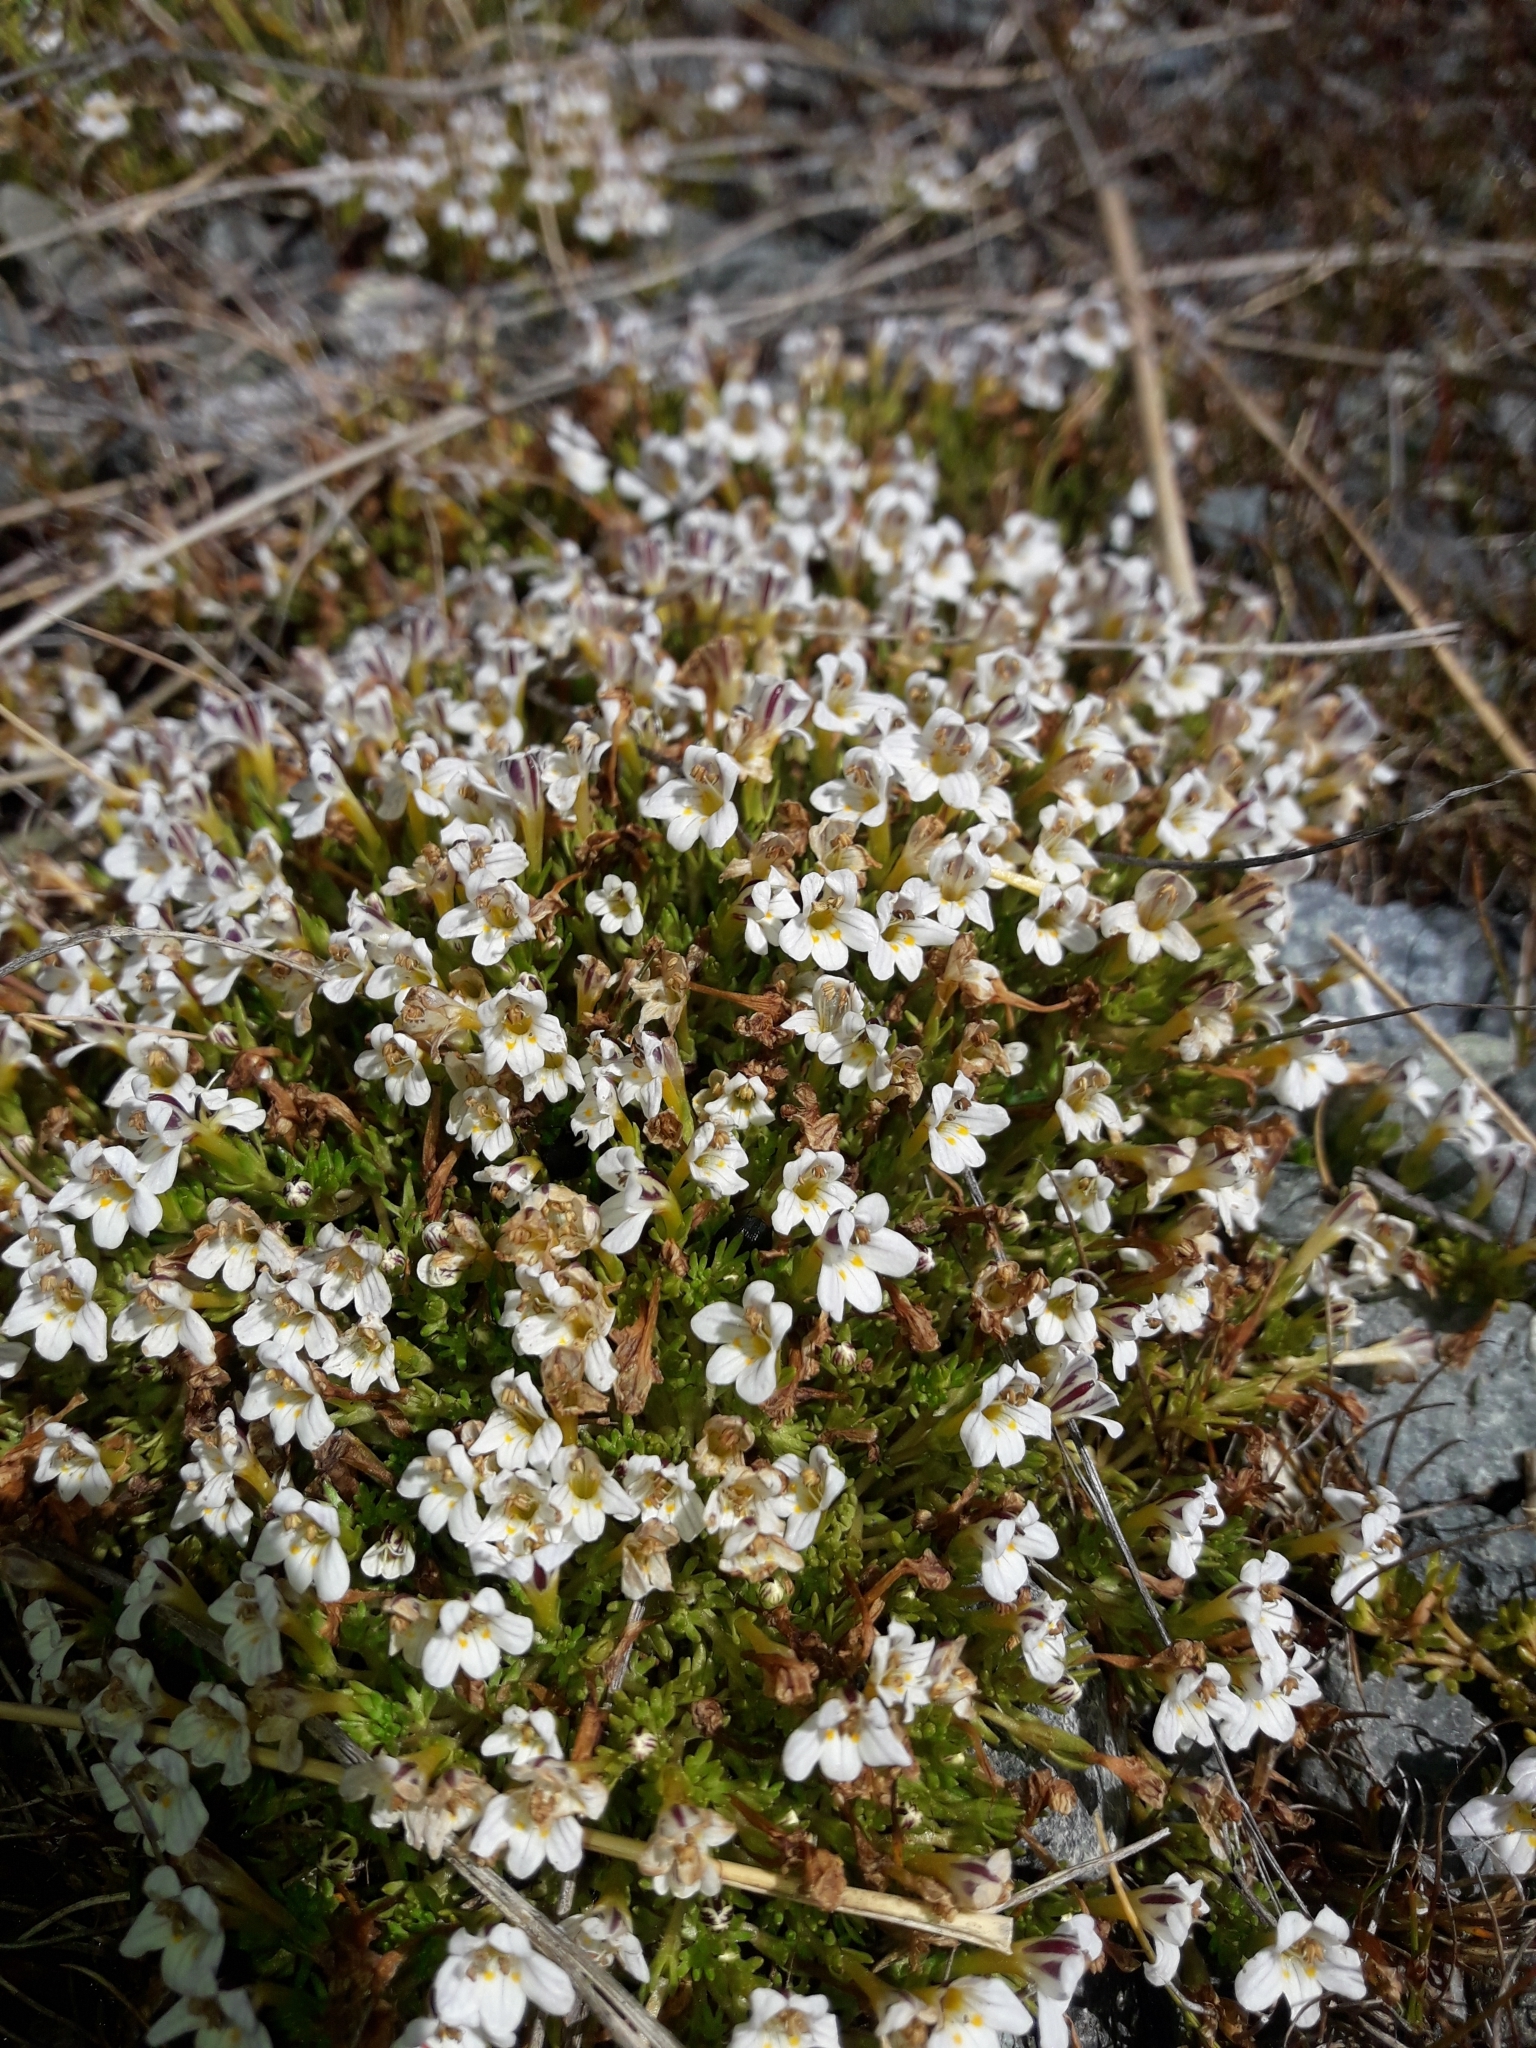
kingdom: Plantae
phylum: Tracheophyta
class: Magnoliopsida
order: Lamiales
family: Orobanchaceae
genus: Euphrasia
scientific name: Euphrasia dyeri
